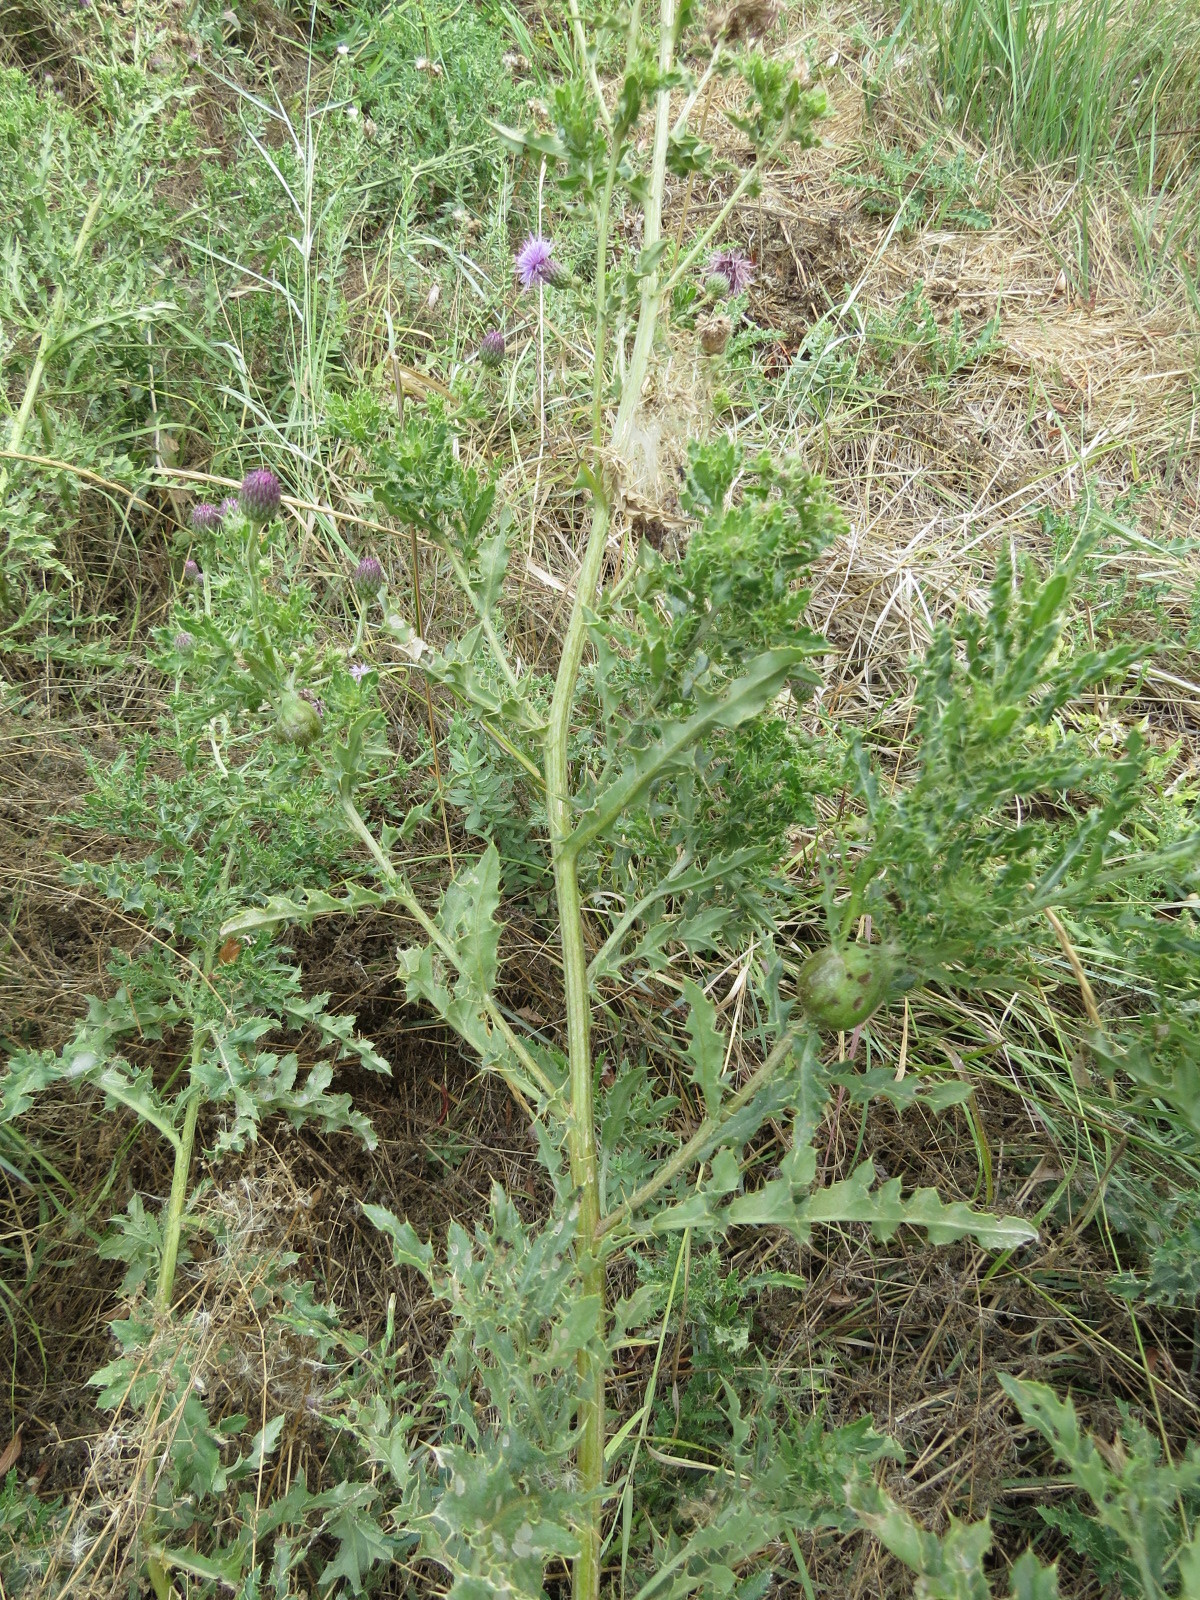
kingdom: Animalia
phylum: Arthropoda
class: Insecta
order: Diptera
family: Tephritidae
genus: Urophora
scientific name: Urophora cardui
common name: Fruit fly
